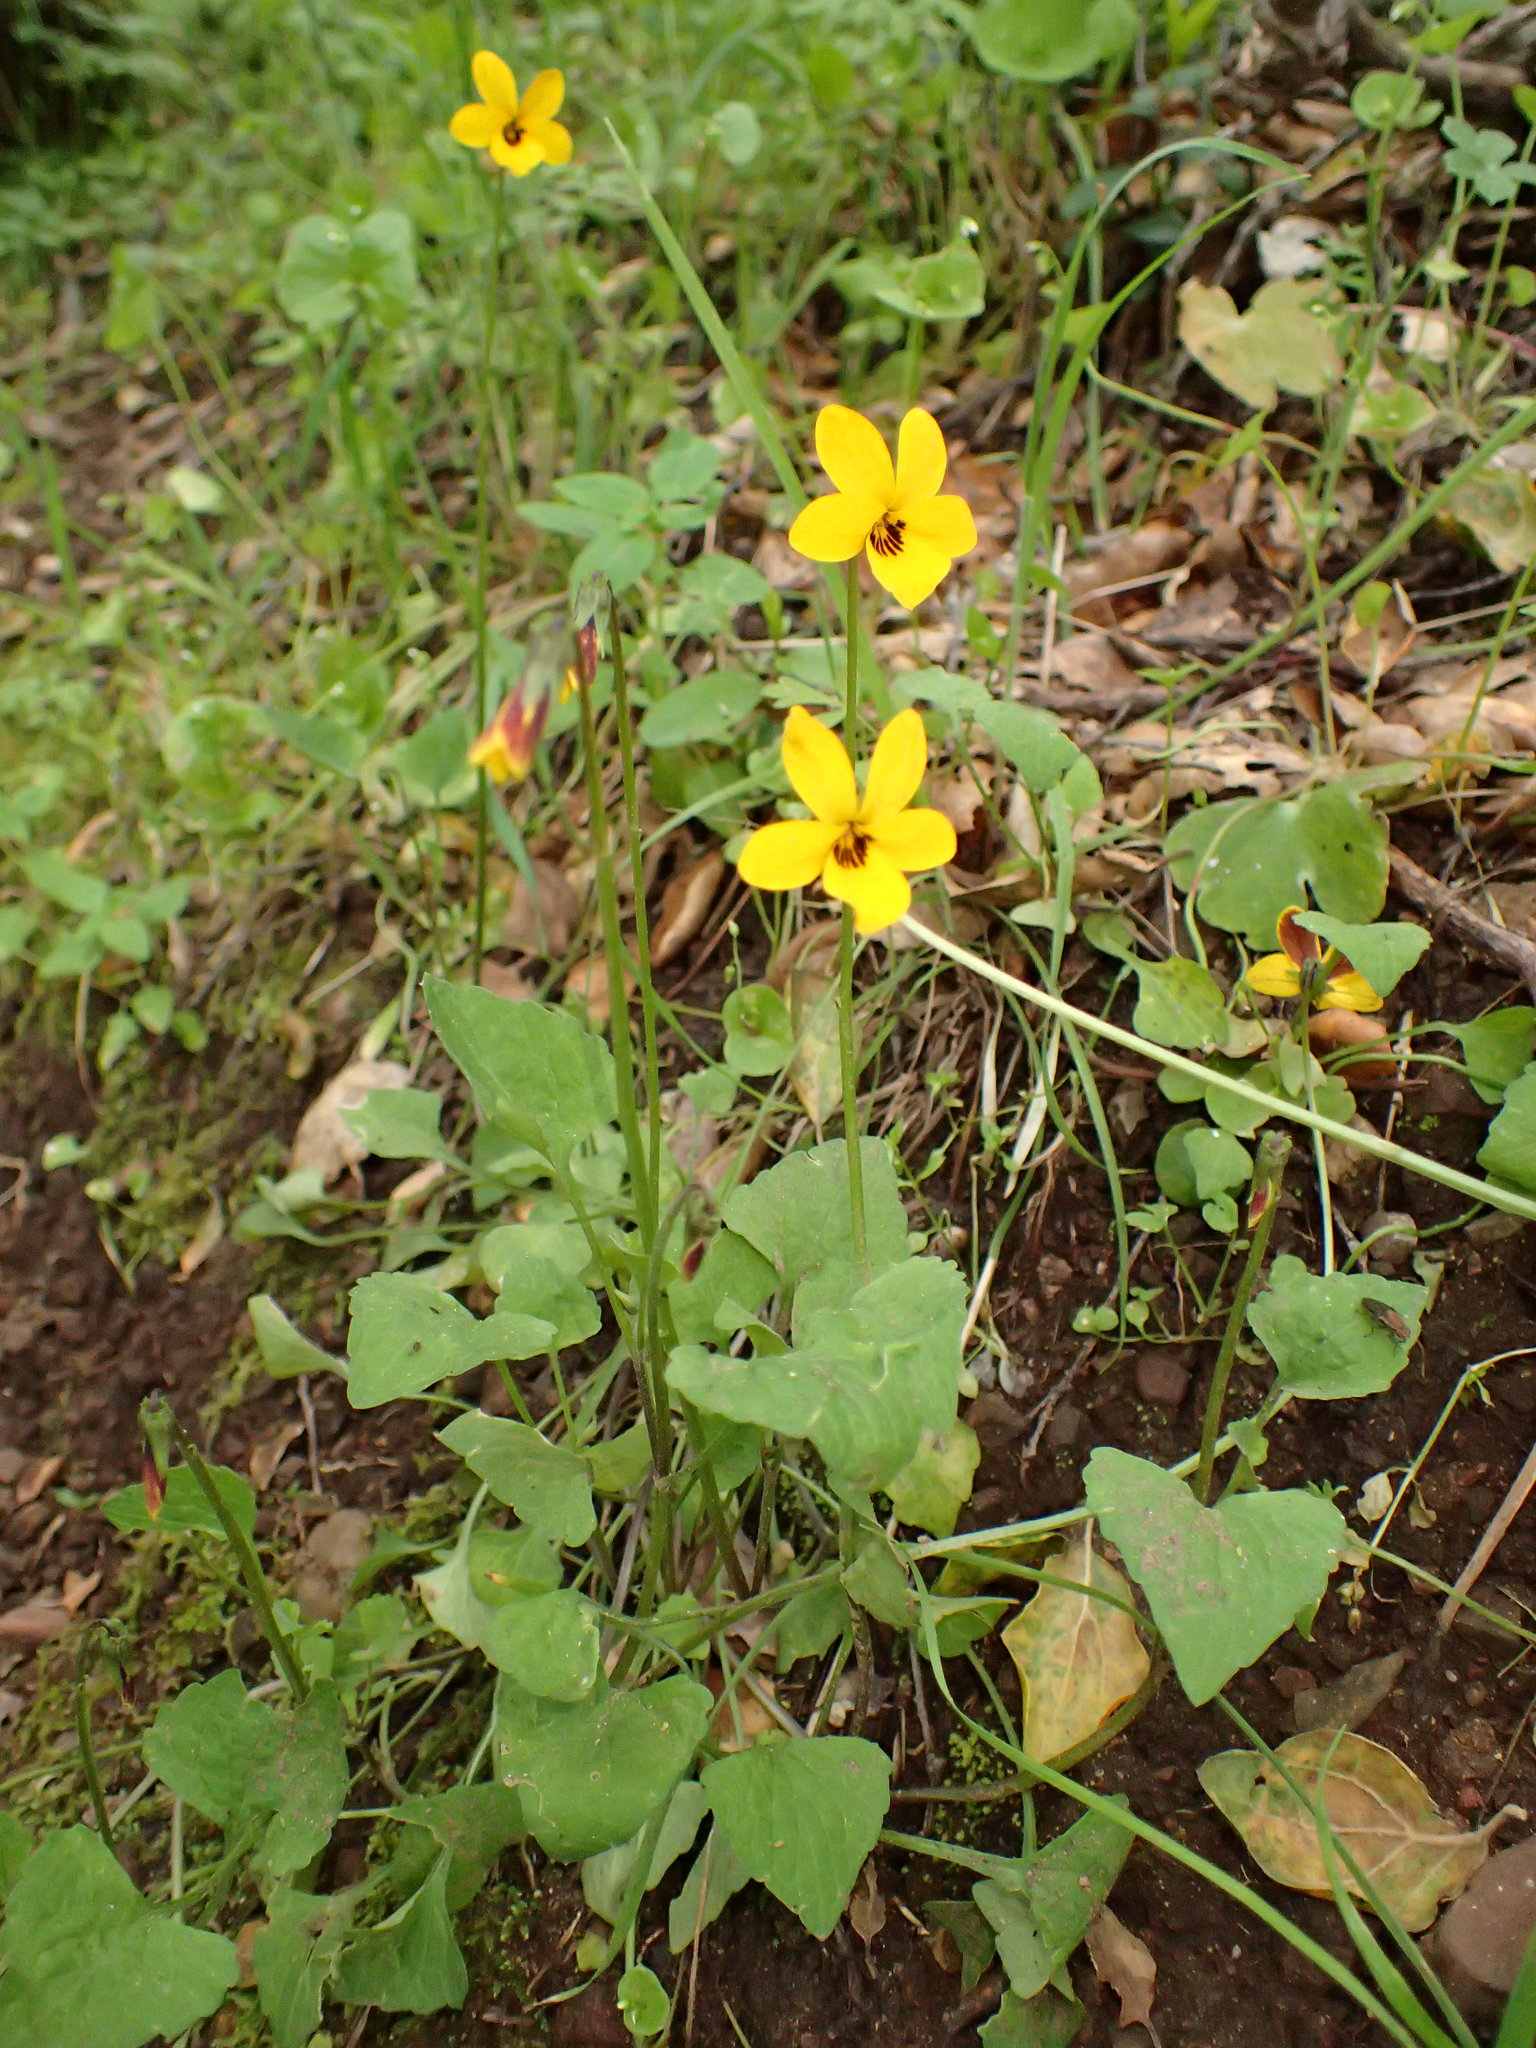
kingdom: Plantae
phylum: Tracheophyta
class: Magnoliopsida
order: Malpighiales
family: Violaceae
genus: Viola
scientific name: Viola pedunculata
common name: California golden violet
